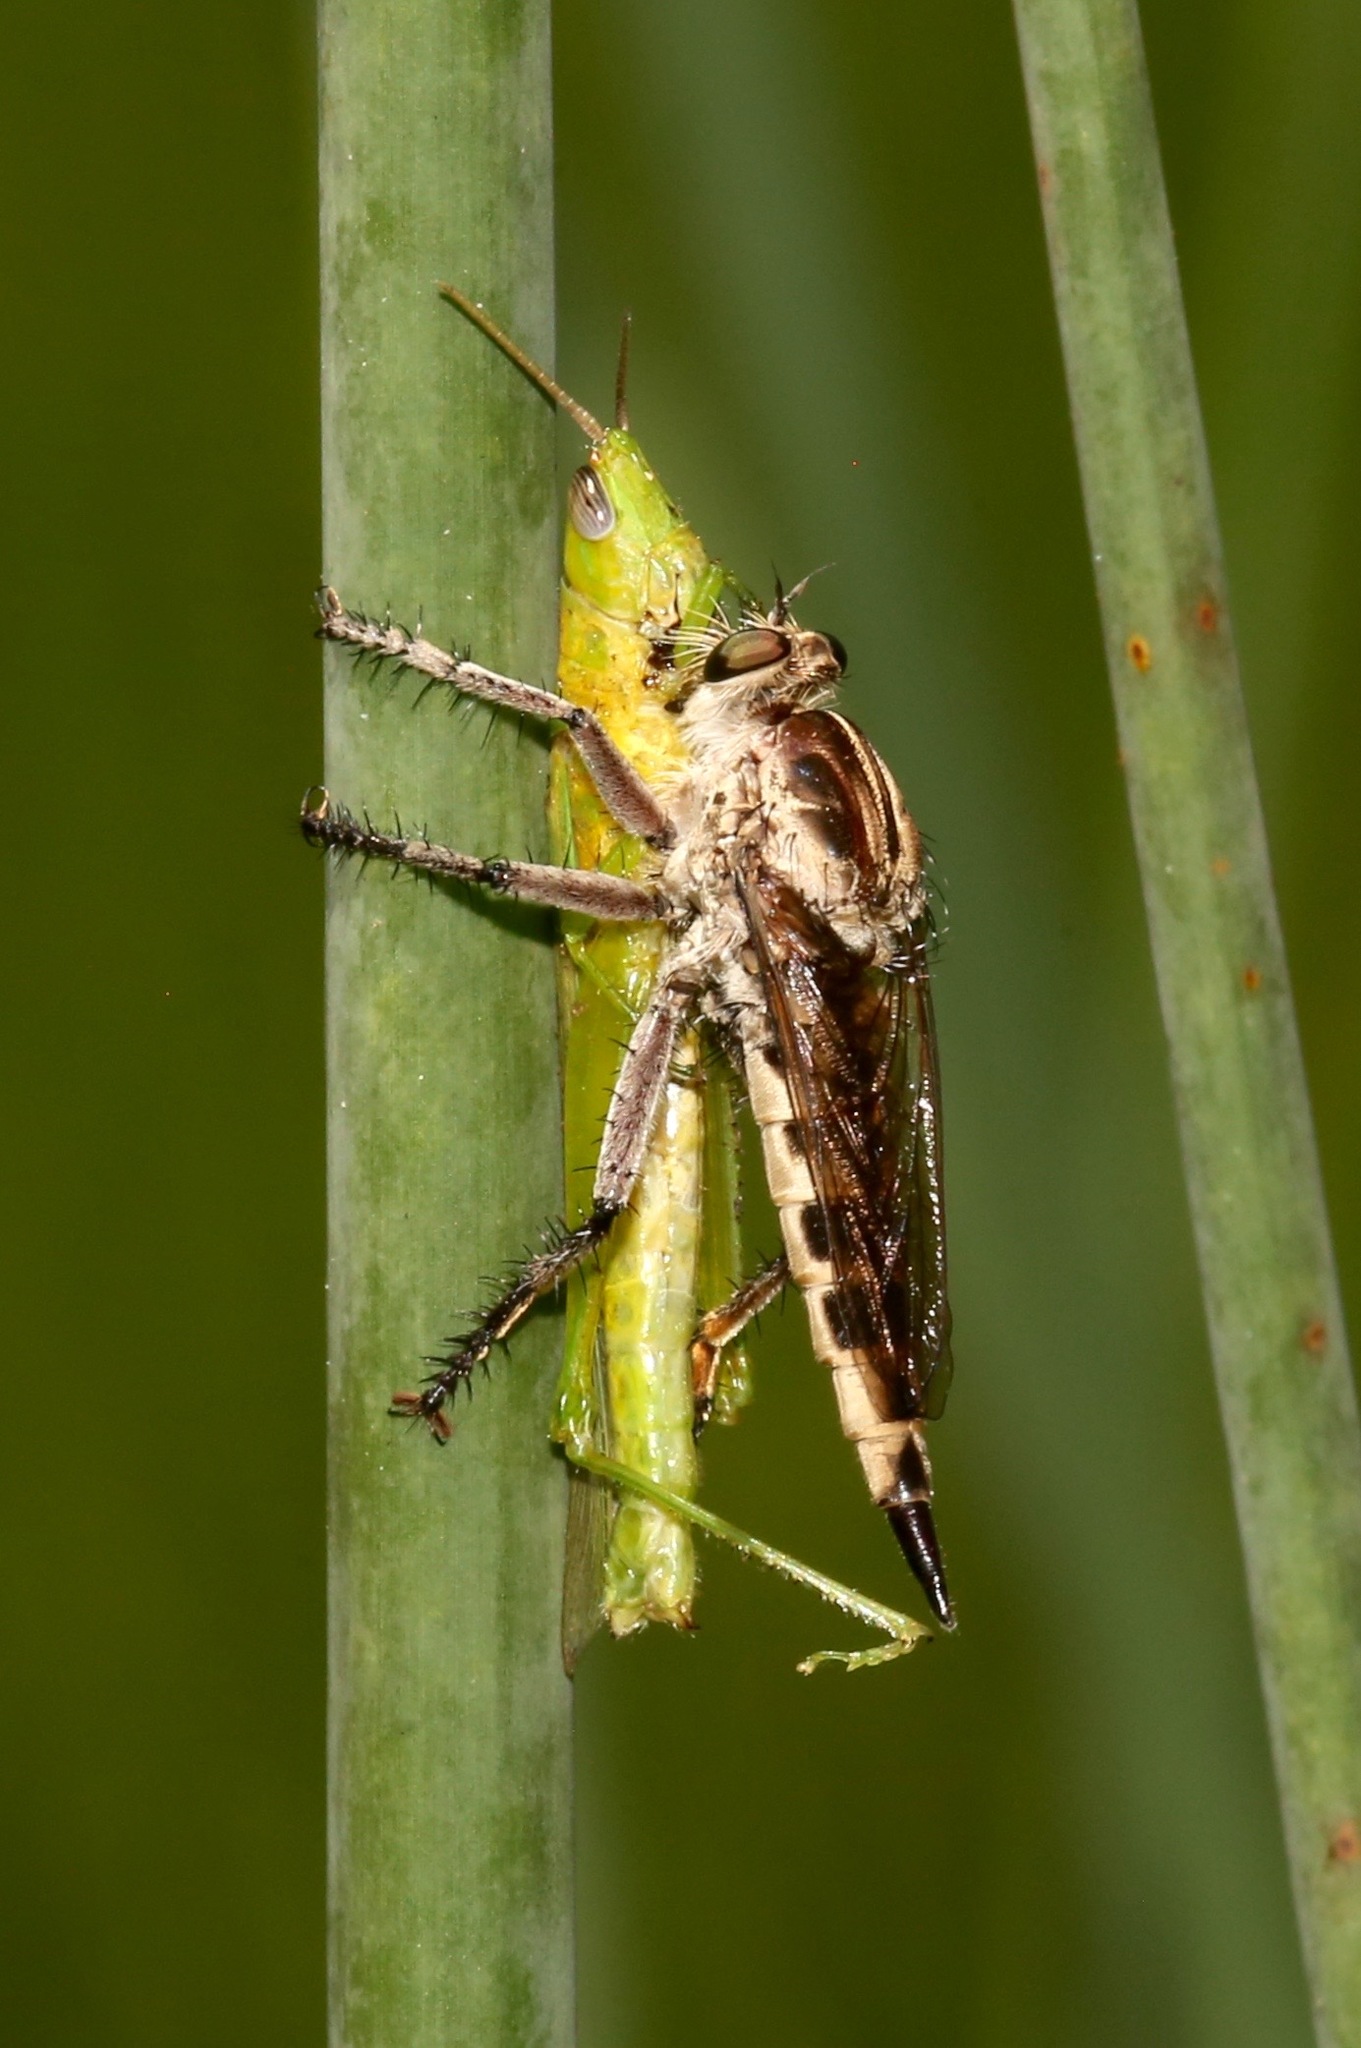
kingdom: Animalia
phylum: Arthropoda
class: Insecta
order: Diptera
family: Asilidae
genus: Triorla
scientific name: Triorla interrupta
